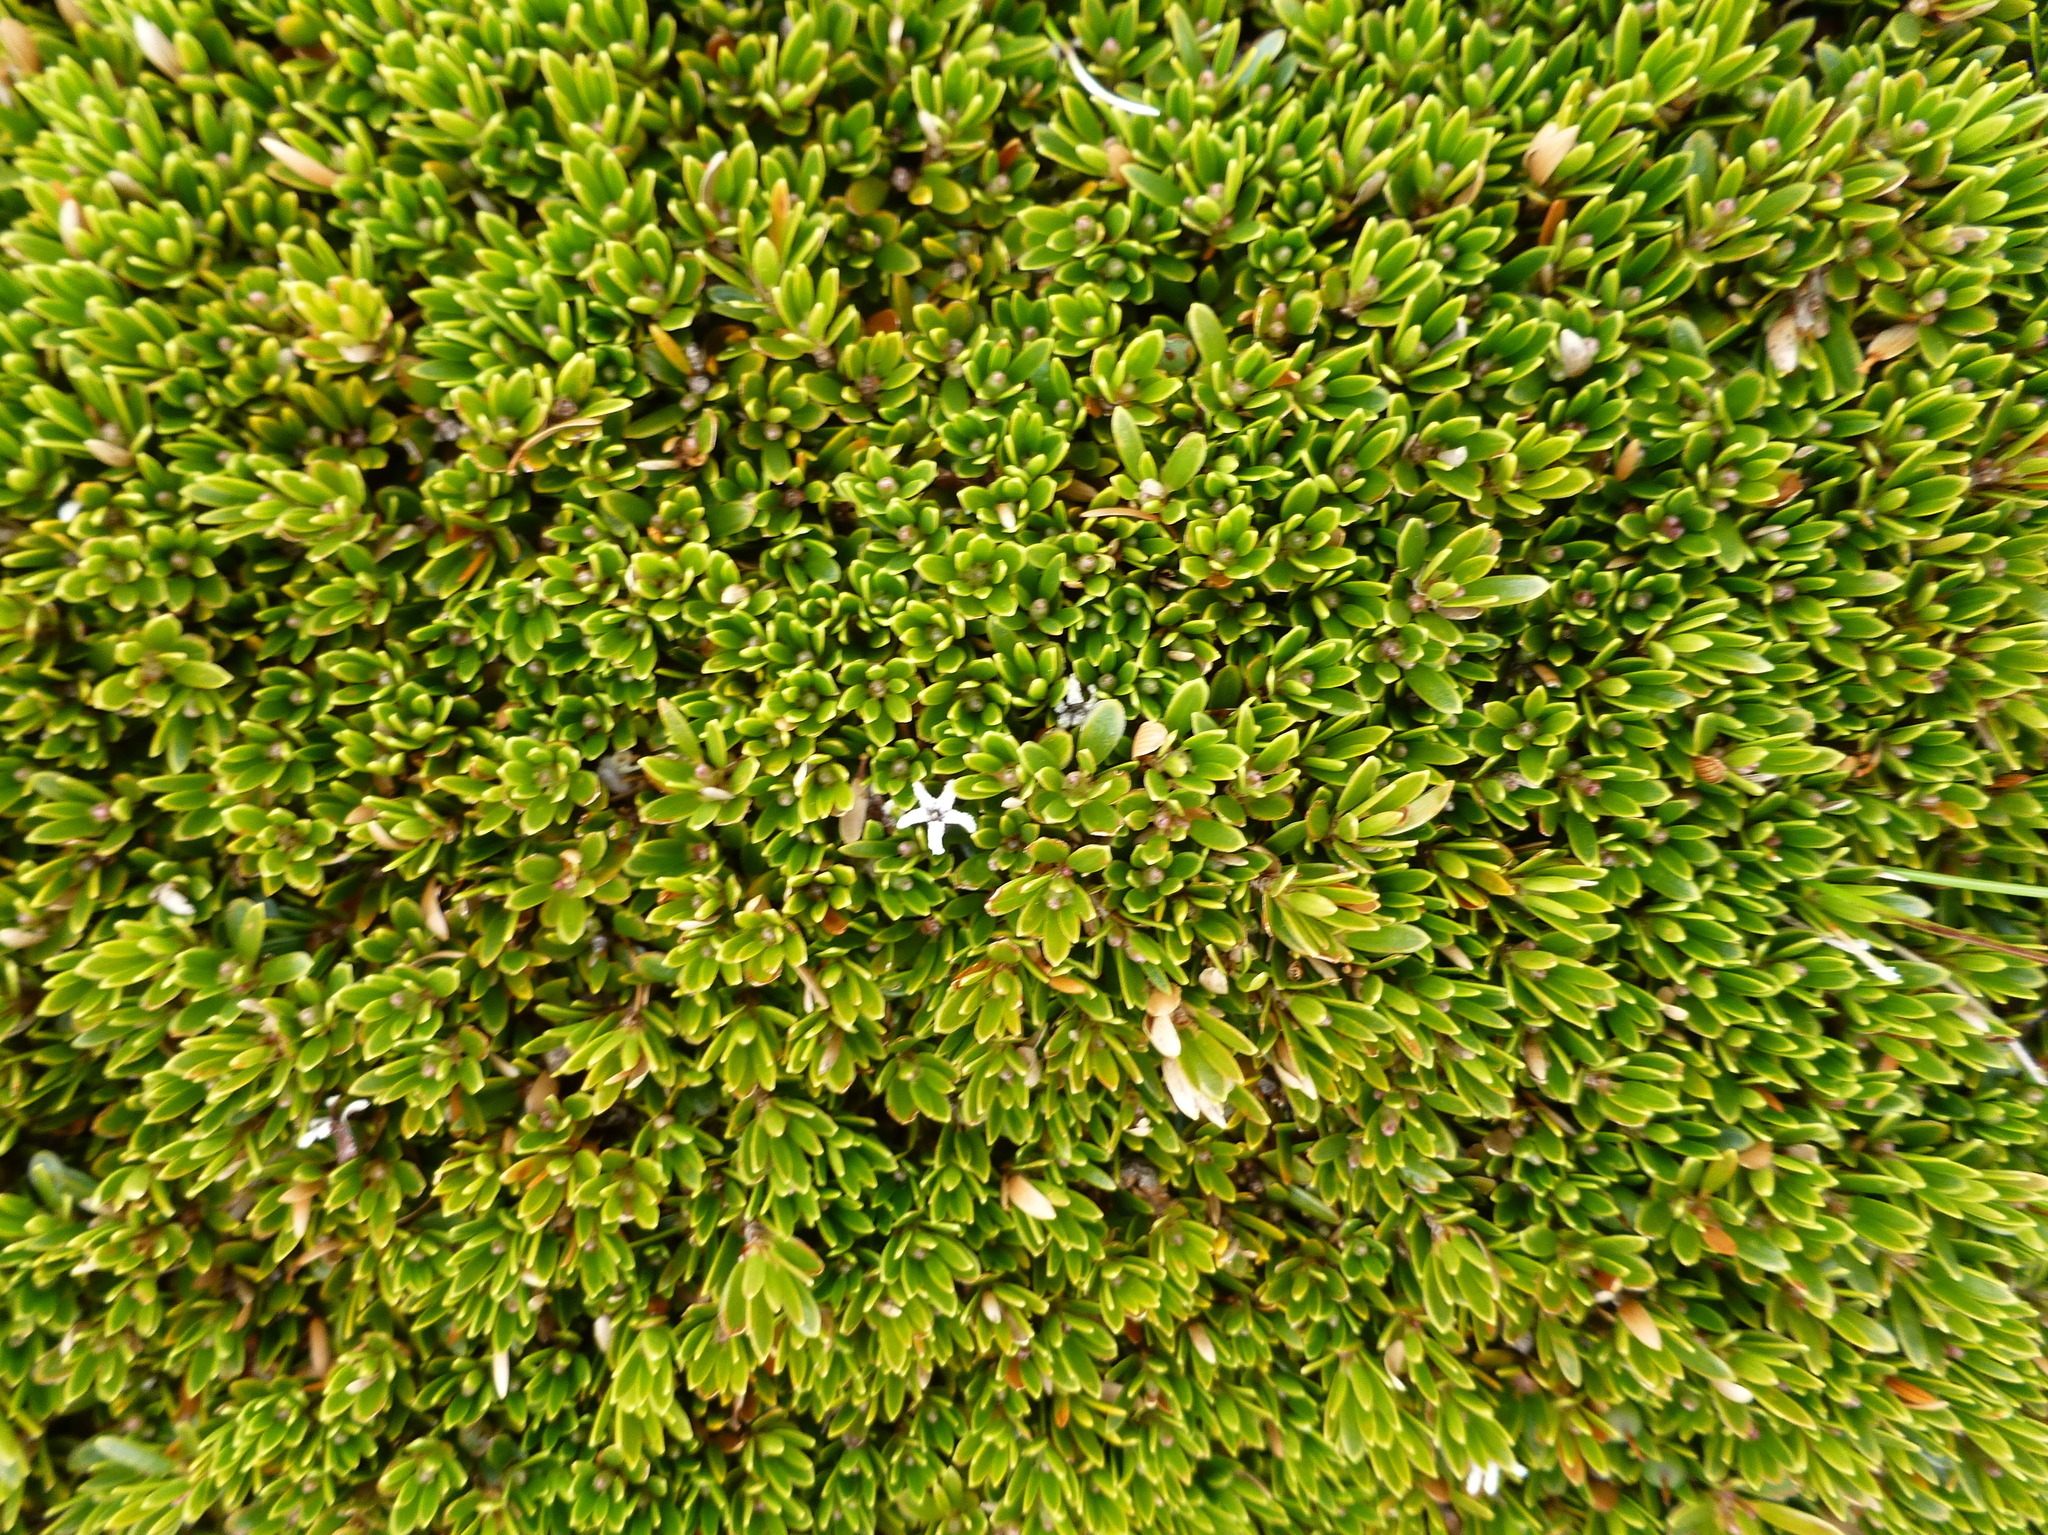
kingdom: Plantae
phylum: Tracheophyta
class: Magnoliopsida
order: Ericales
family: Ericaceae
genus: Pentachondra
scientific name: Pentachondra pumila
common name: Carpet-heath
